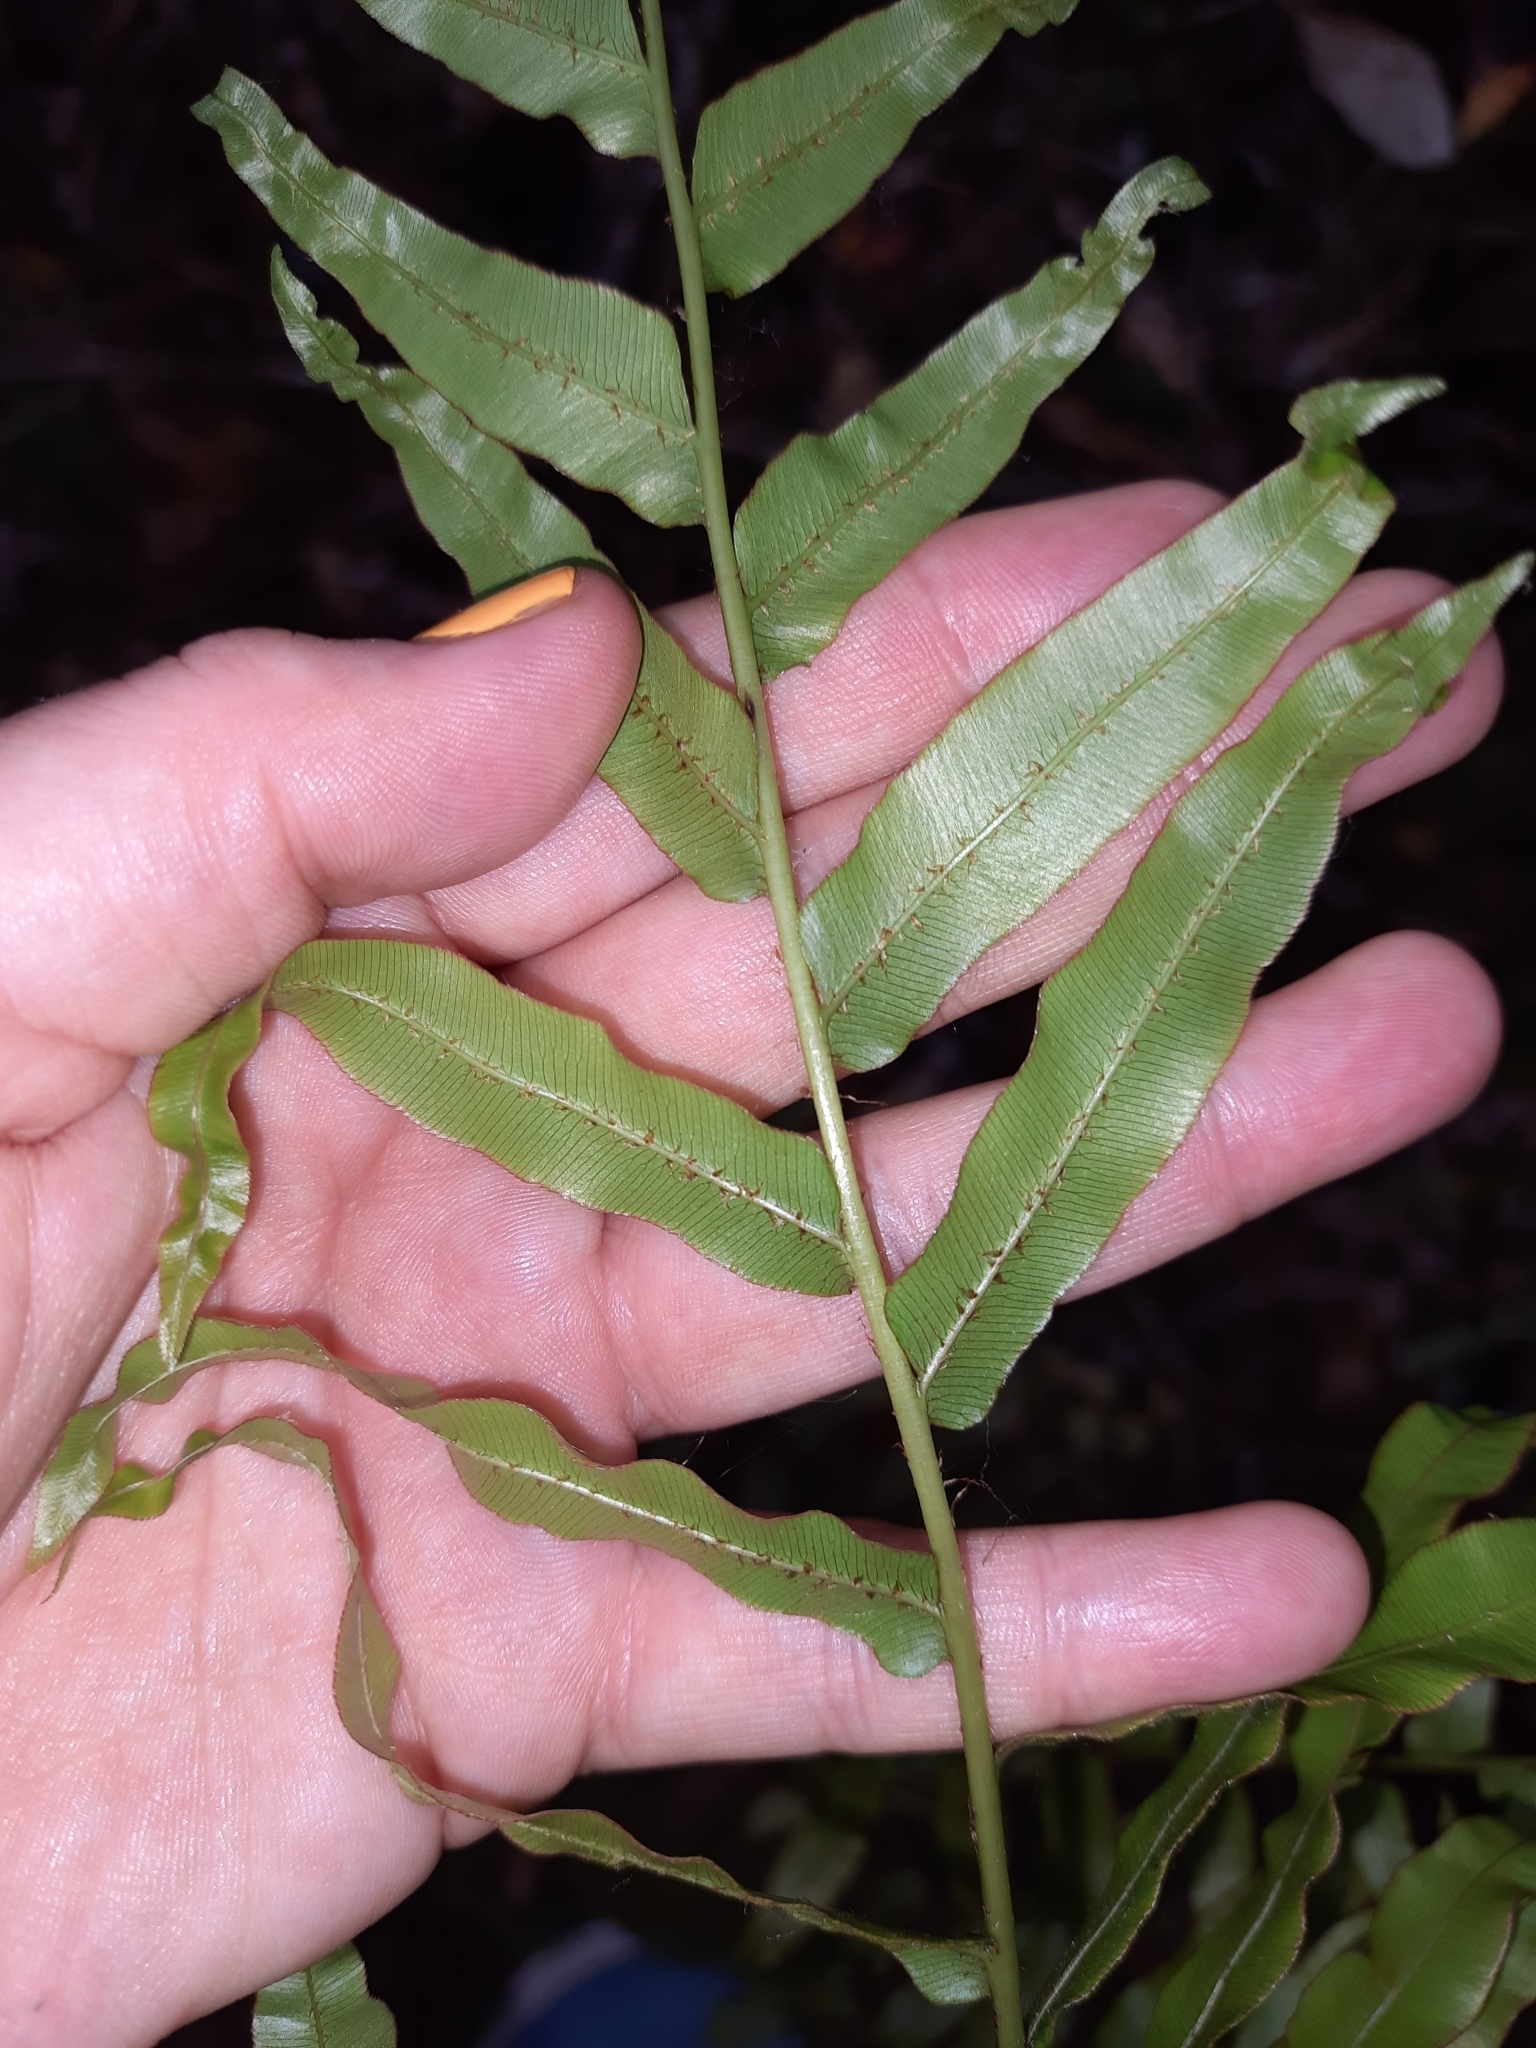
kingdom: Plantae
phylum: Tracheophyta
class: Polypodiopsida
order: Polypodiales
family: Blechnaceae
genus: Parablechnum
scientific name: Parablechnum novae-zelandiae
